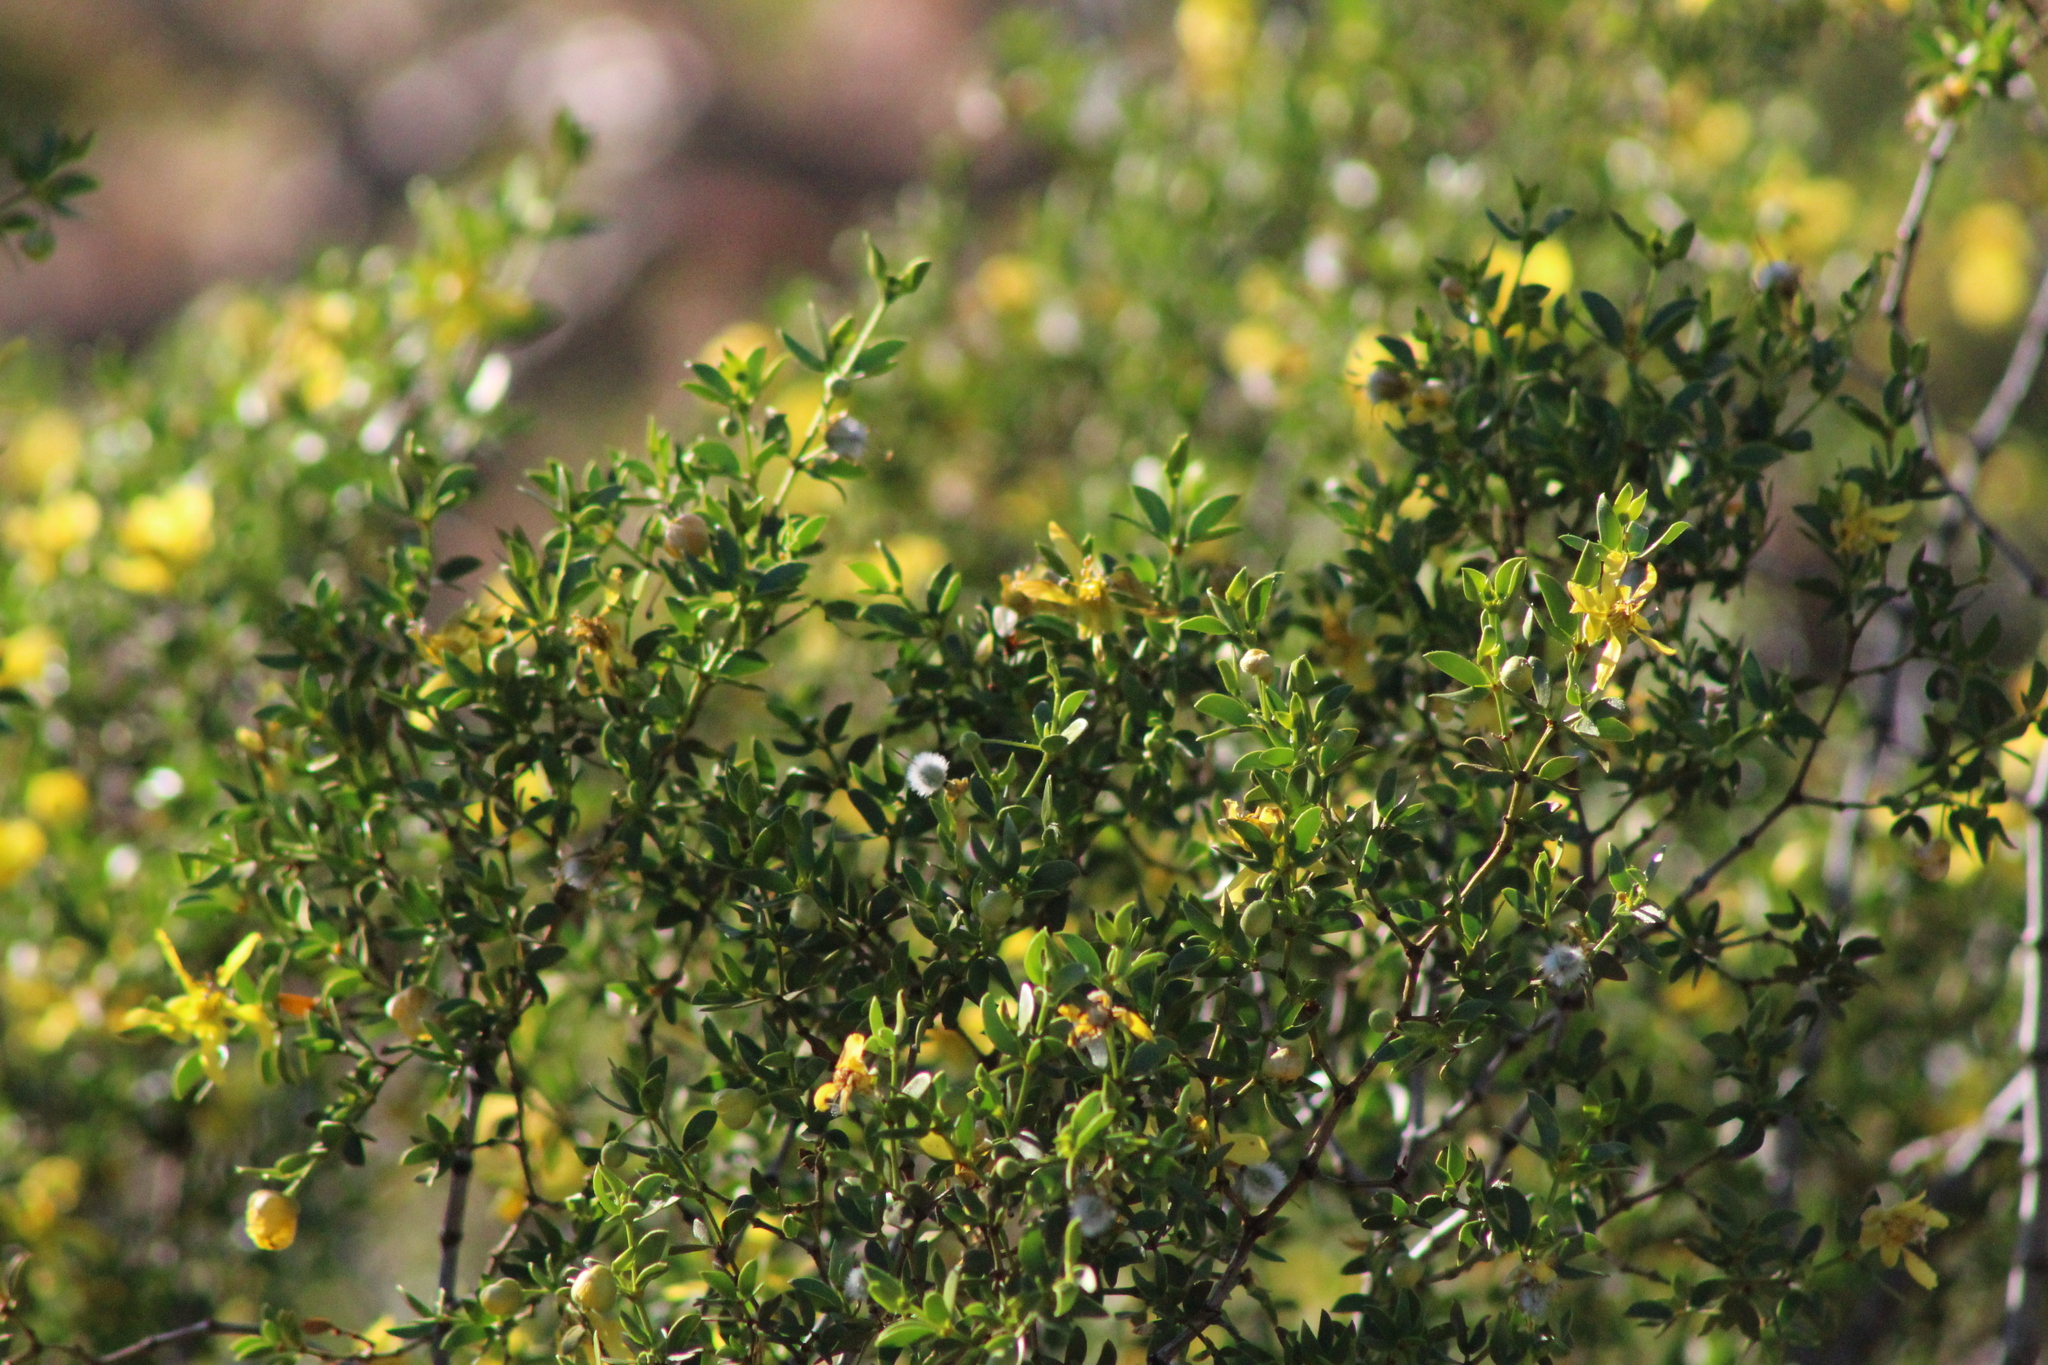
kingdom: Plantae
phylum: Tracheophyta
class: Magnoliopsida
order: Zygophyllales
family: Zygophyllaceae
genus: Larrea
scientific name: Larrea tridentata
